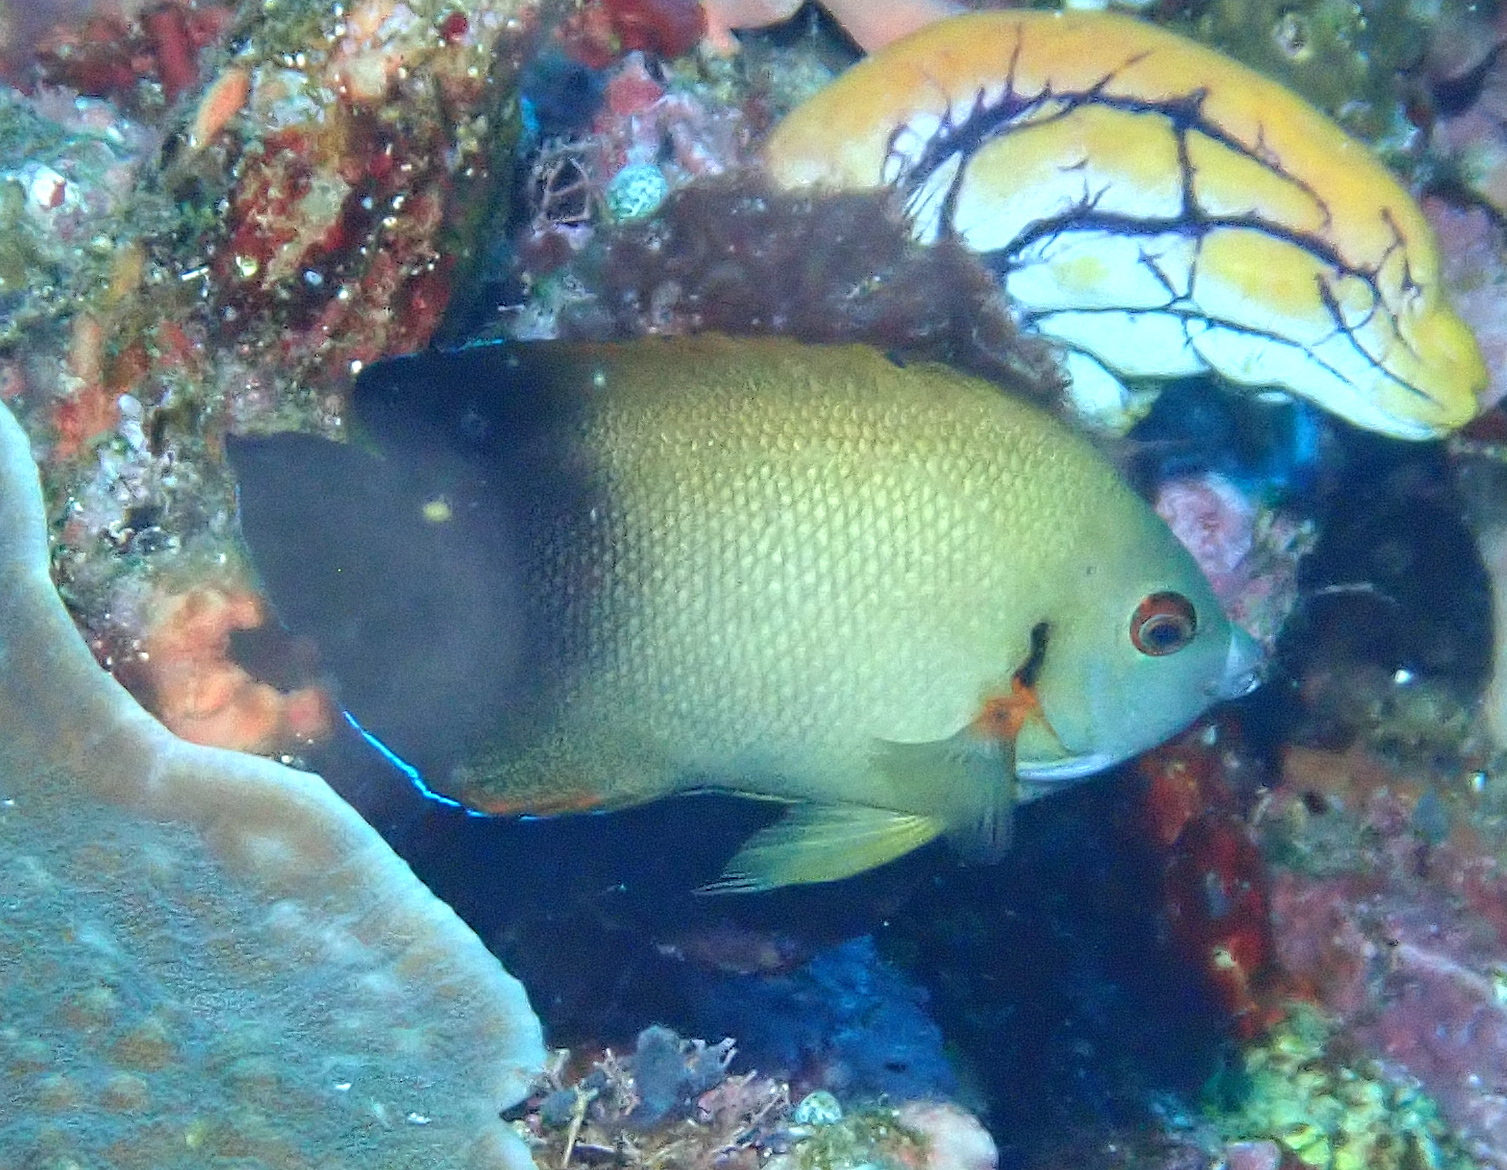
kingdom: Animalia
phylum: Chordata
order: Perciformes
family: Pomacanthidae
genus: Centropyge
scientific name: Centropyge vrolikii
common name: Pearlscale angelfish
